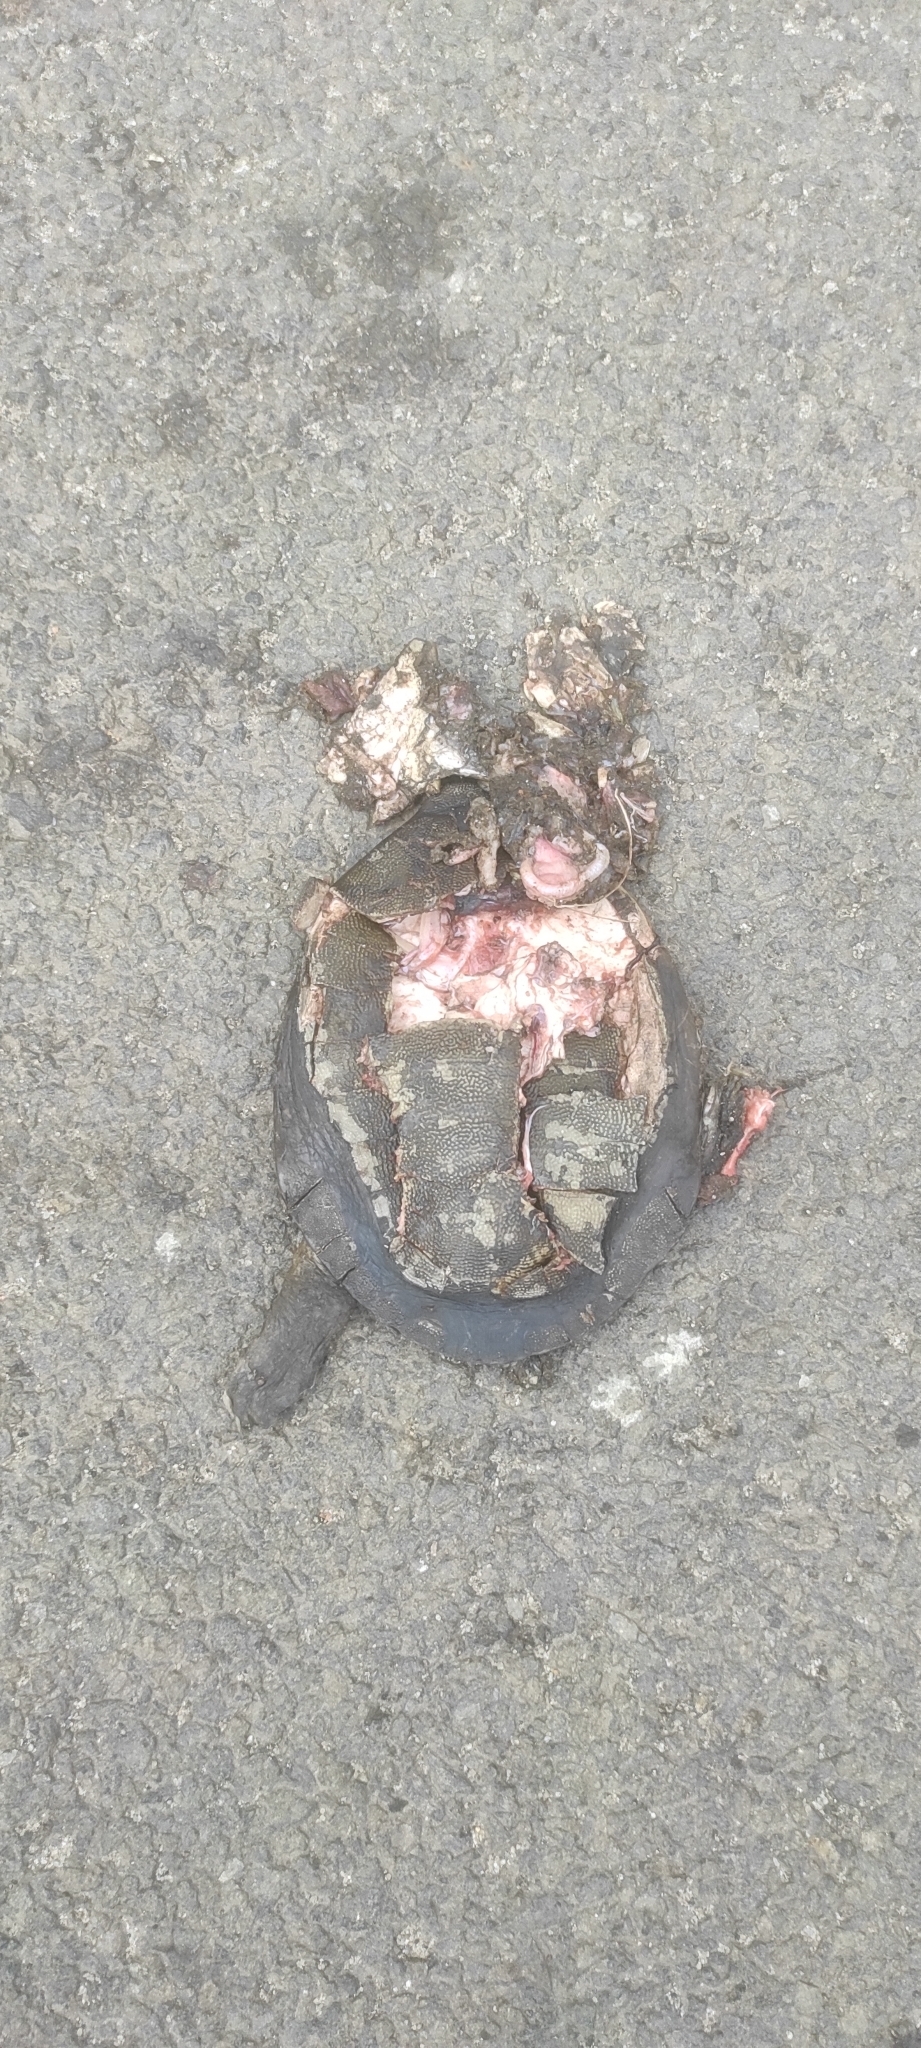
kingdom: Animalia
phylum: Chordata
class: Testudines
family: Trionychidae
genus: Lissemys
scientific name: Lissemys punctata
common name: Indian flap-shelled turtle
